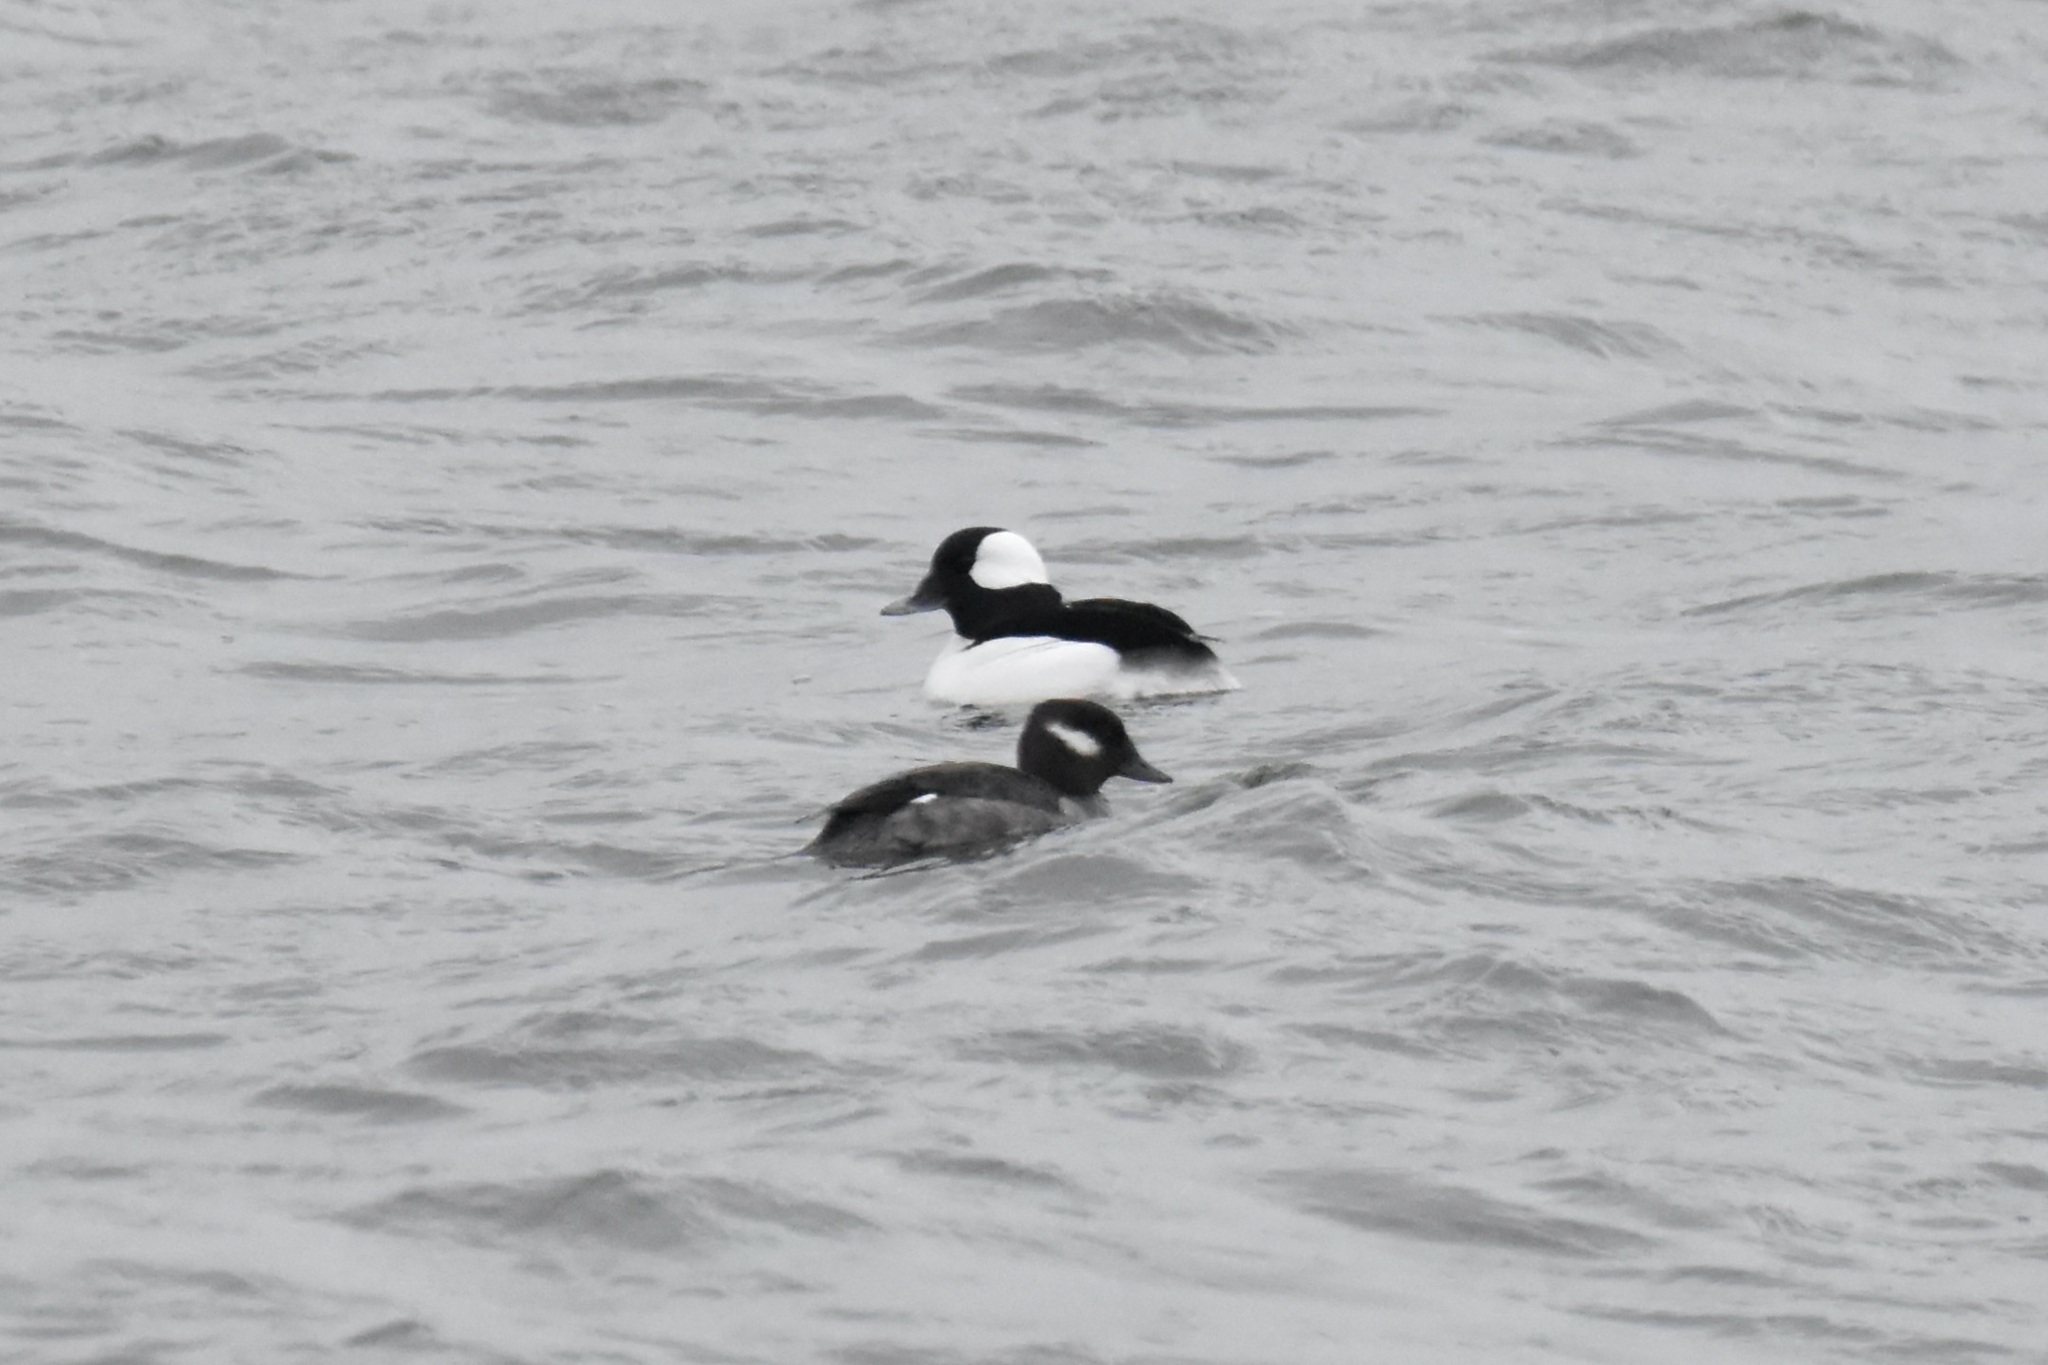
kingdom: Animalia
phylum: Chordata
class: Aves
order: Anseriformes
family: Anatidae
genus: Bucephala
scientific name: Bucephala albeola
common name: Bufflehead
